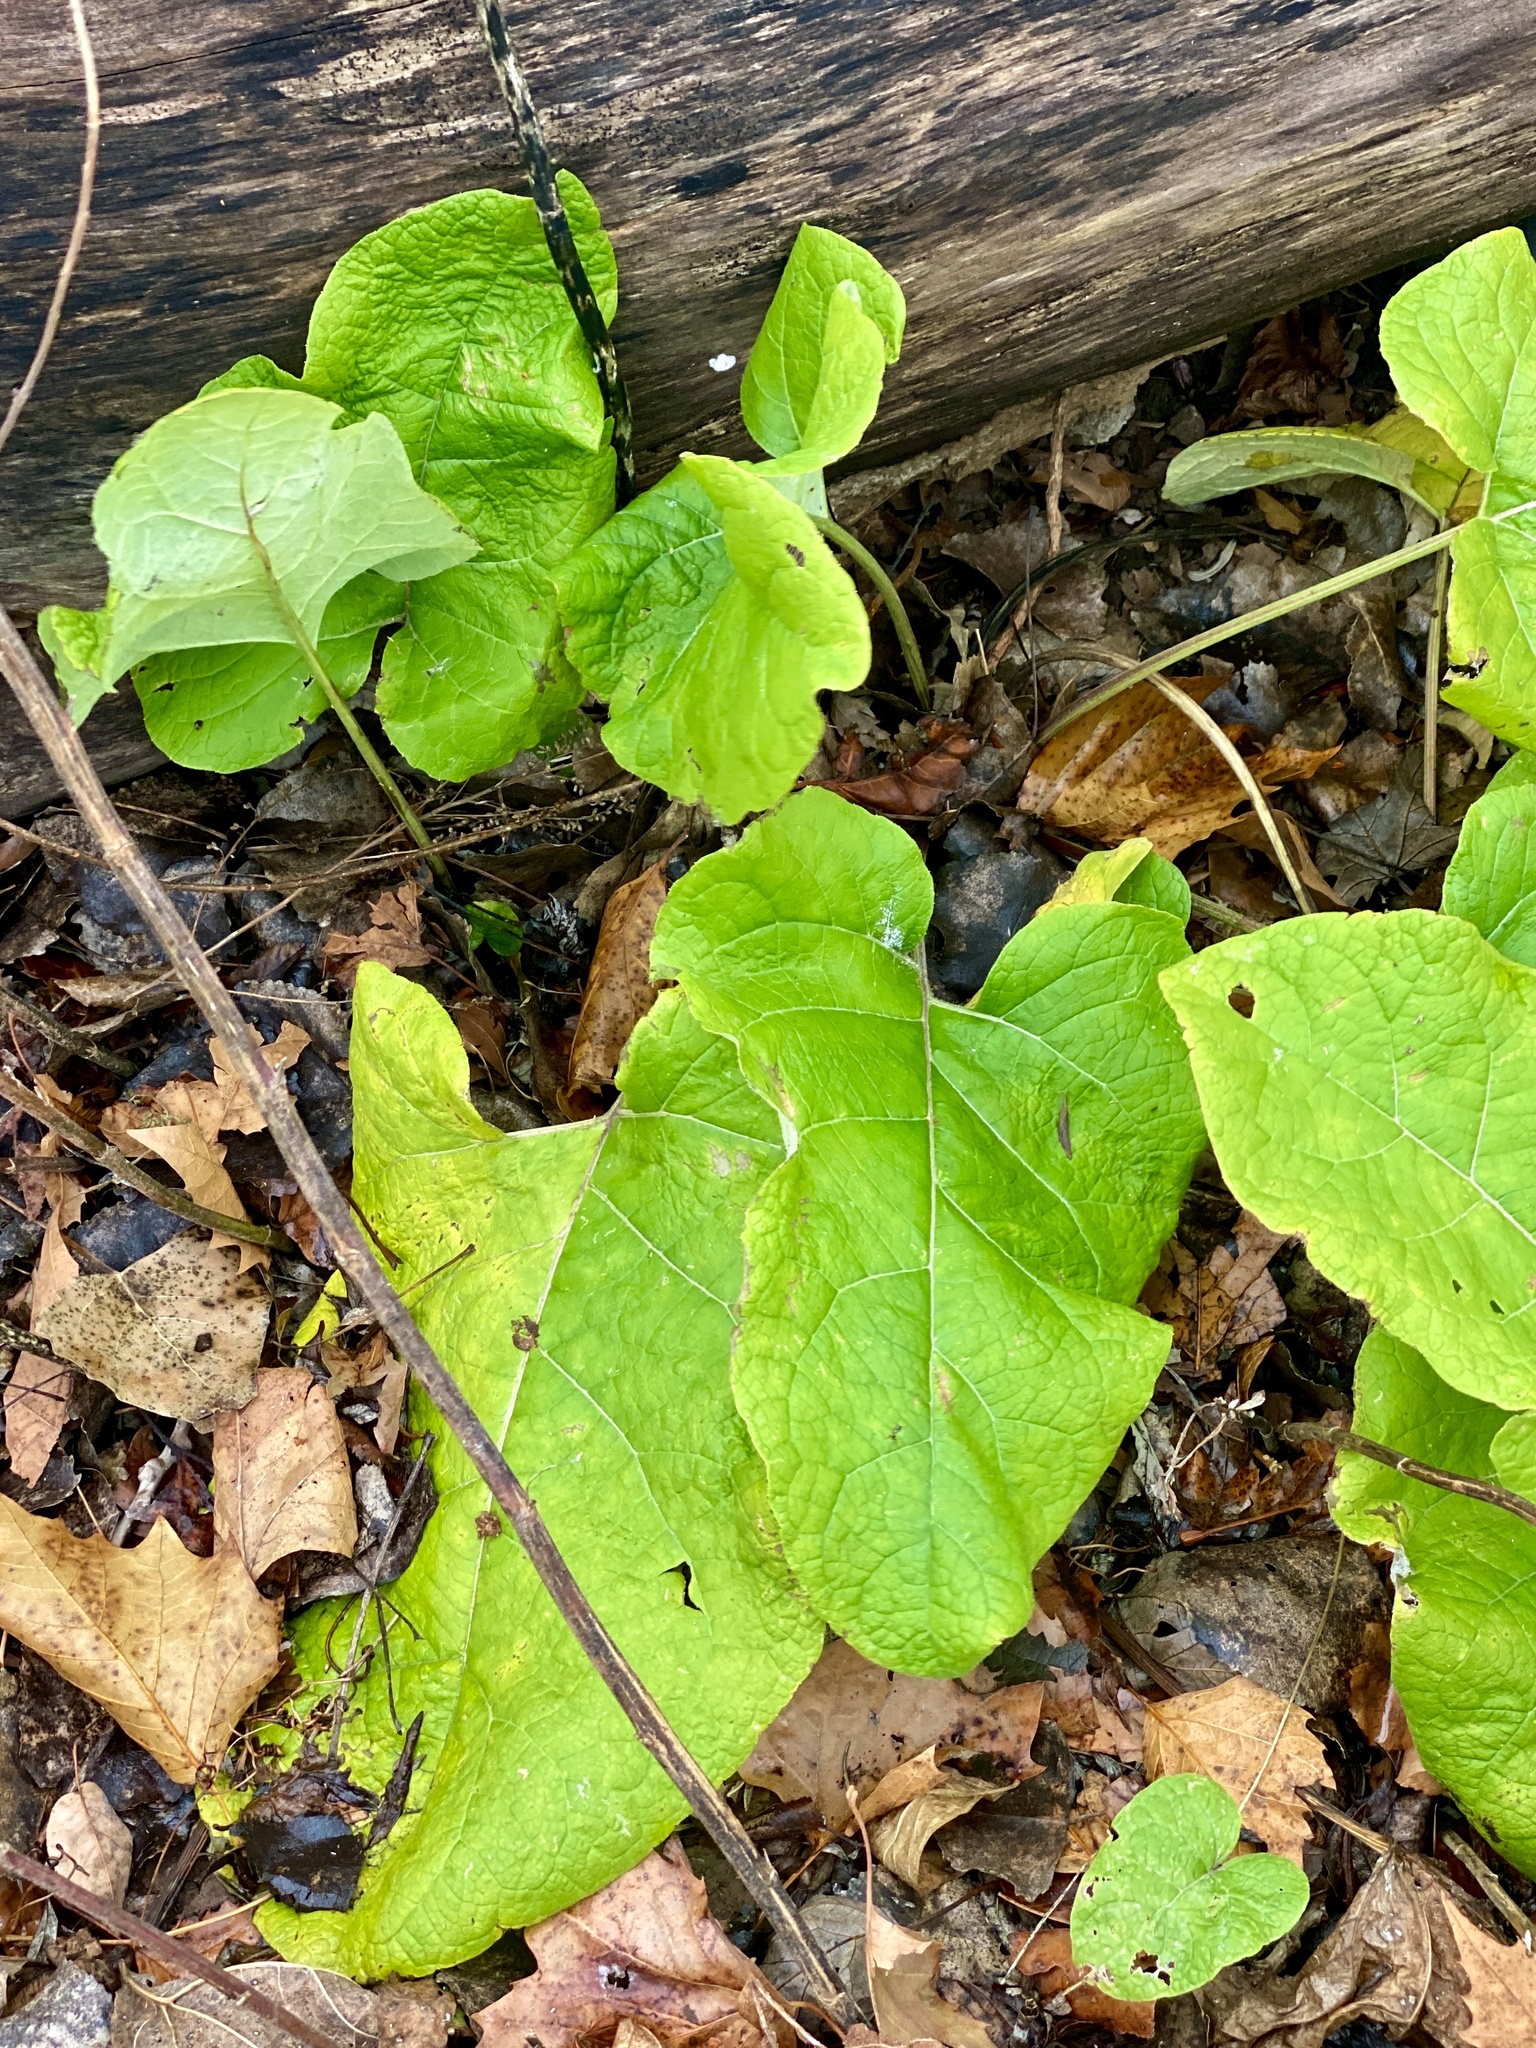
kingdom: Plantae
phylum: Tracheophyta
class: Magnoliopsida
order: Asterales
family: Asteraceae
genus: Arctium
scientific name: Arctium minus
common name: Lesser burdock
